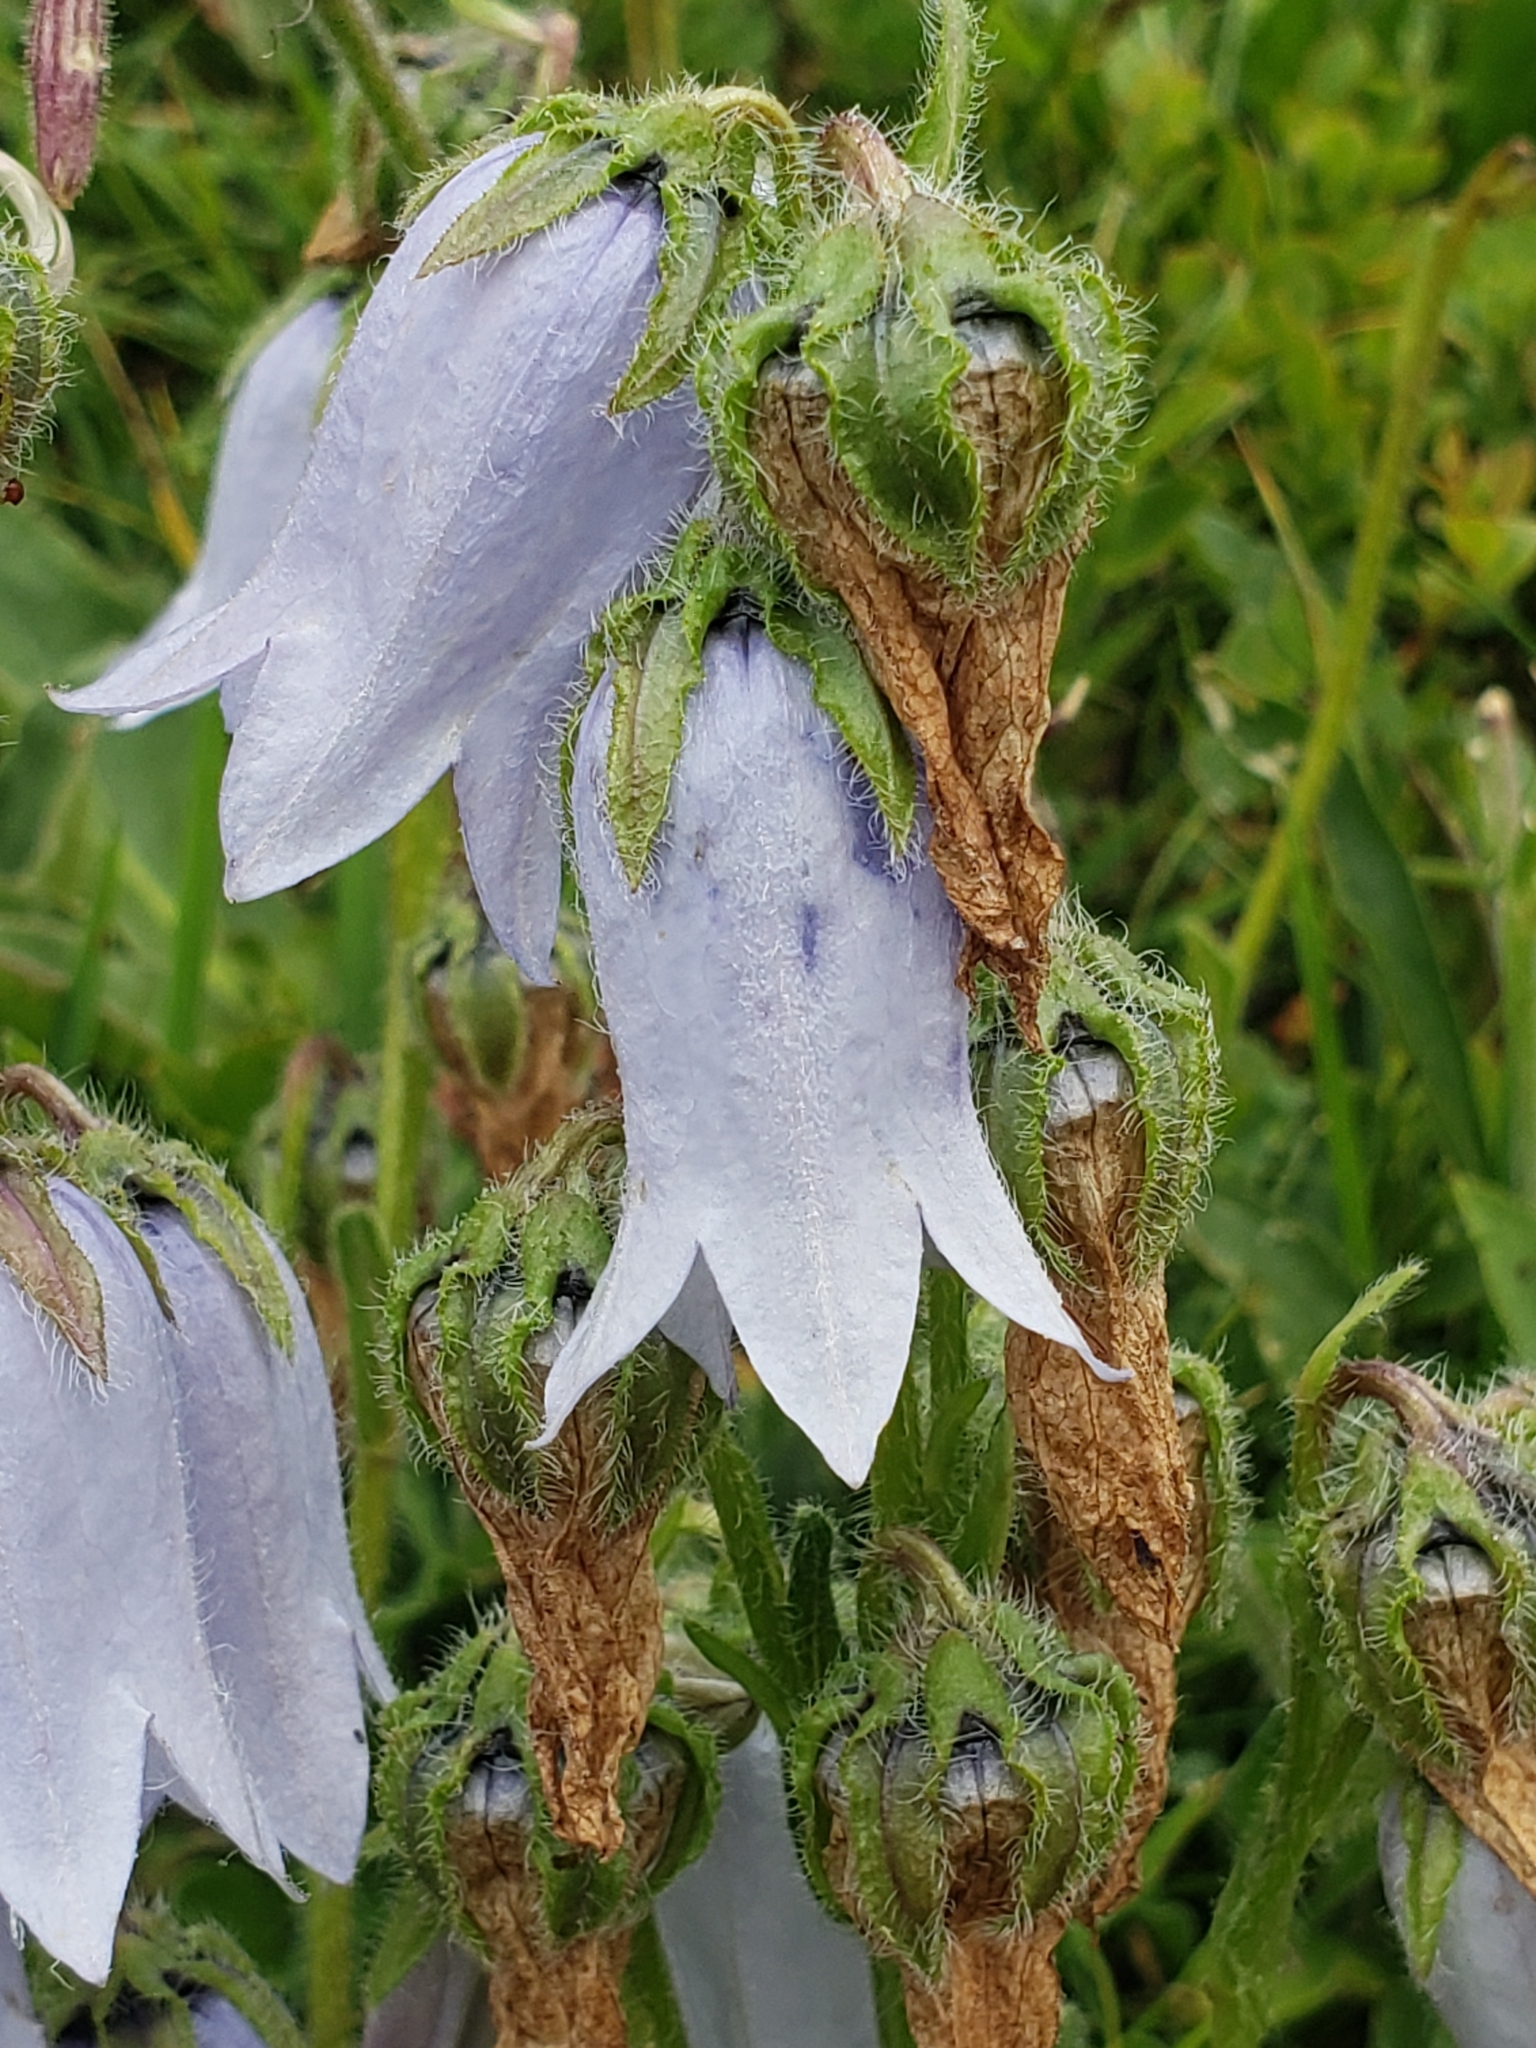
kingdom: Plantae
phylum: Tracheophyta
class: Magnoliopsida
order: Asterales
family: Campanulaceae
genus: Campanula
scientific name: Campanula barbata
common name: Bearded bellflower
